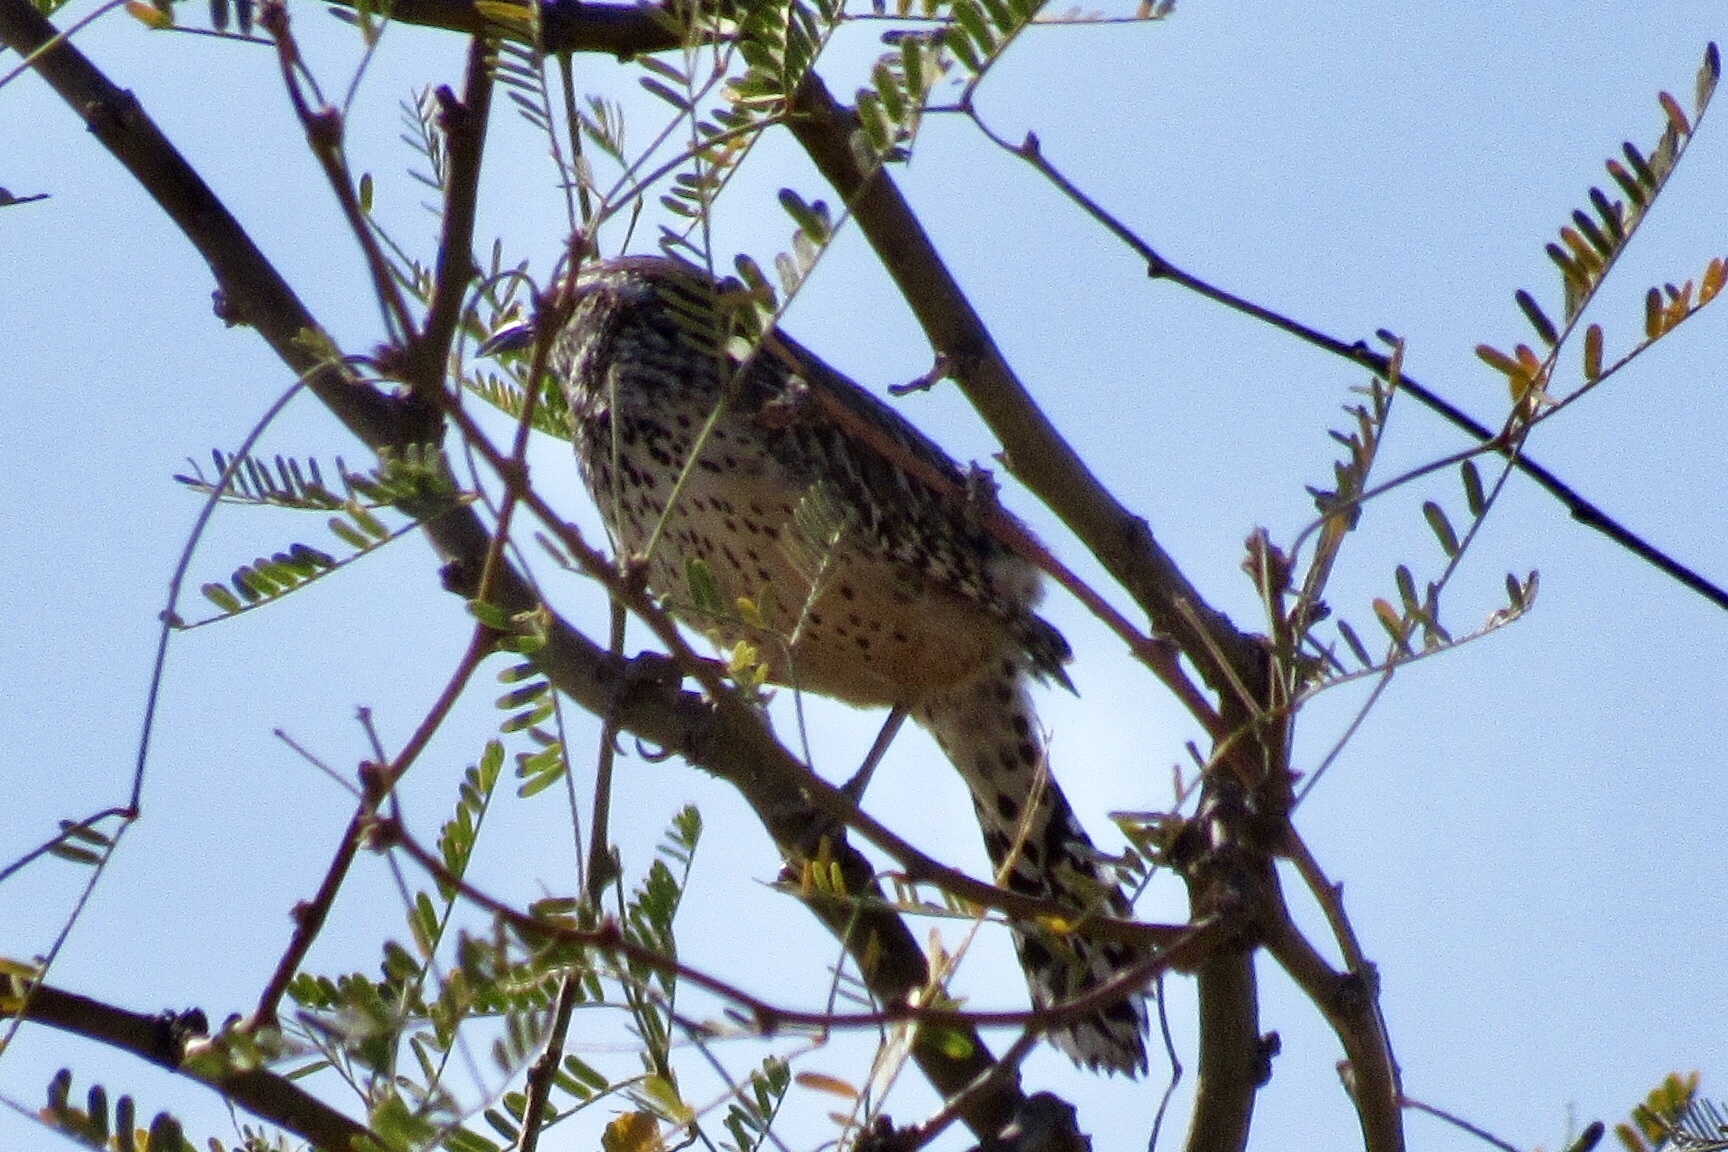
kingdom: Animalia
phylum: Chordata
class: Aves
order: Passeriformes
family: Troglodytidae
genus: Campylorhynchus
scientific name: Campylorhynchus brunneicapillus
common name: Cactus wren
